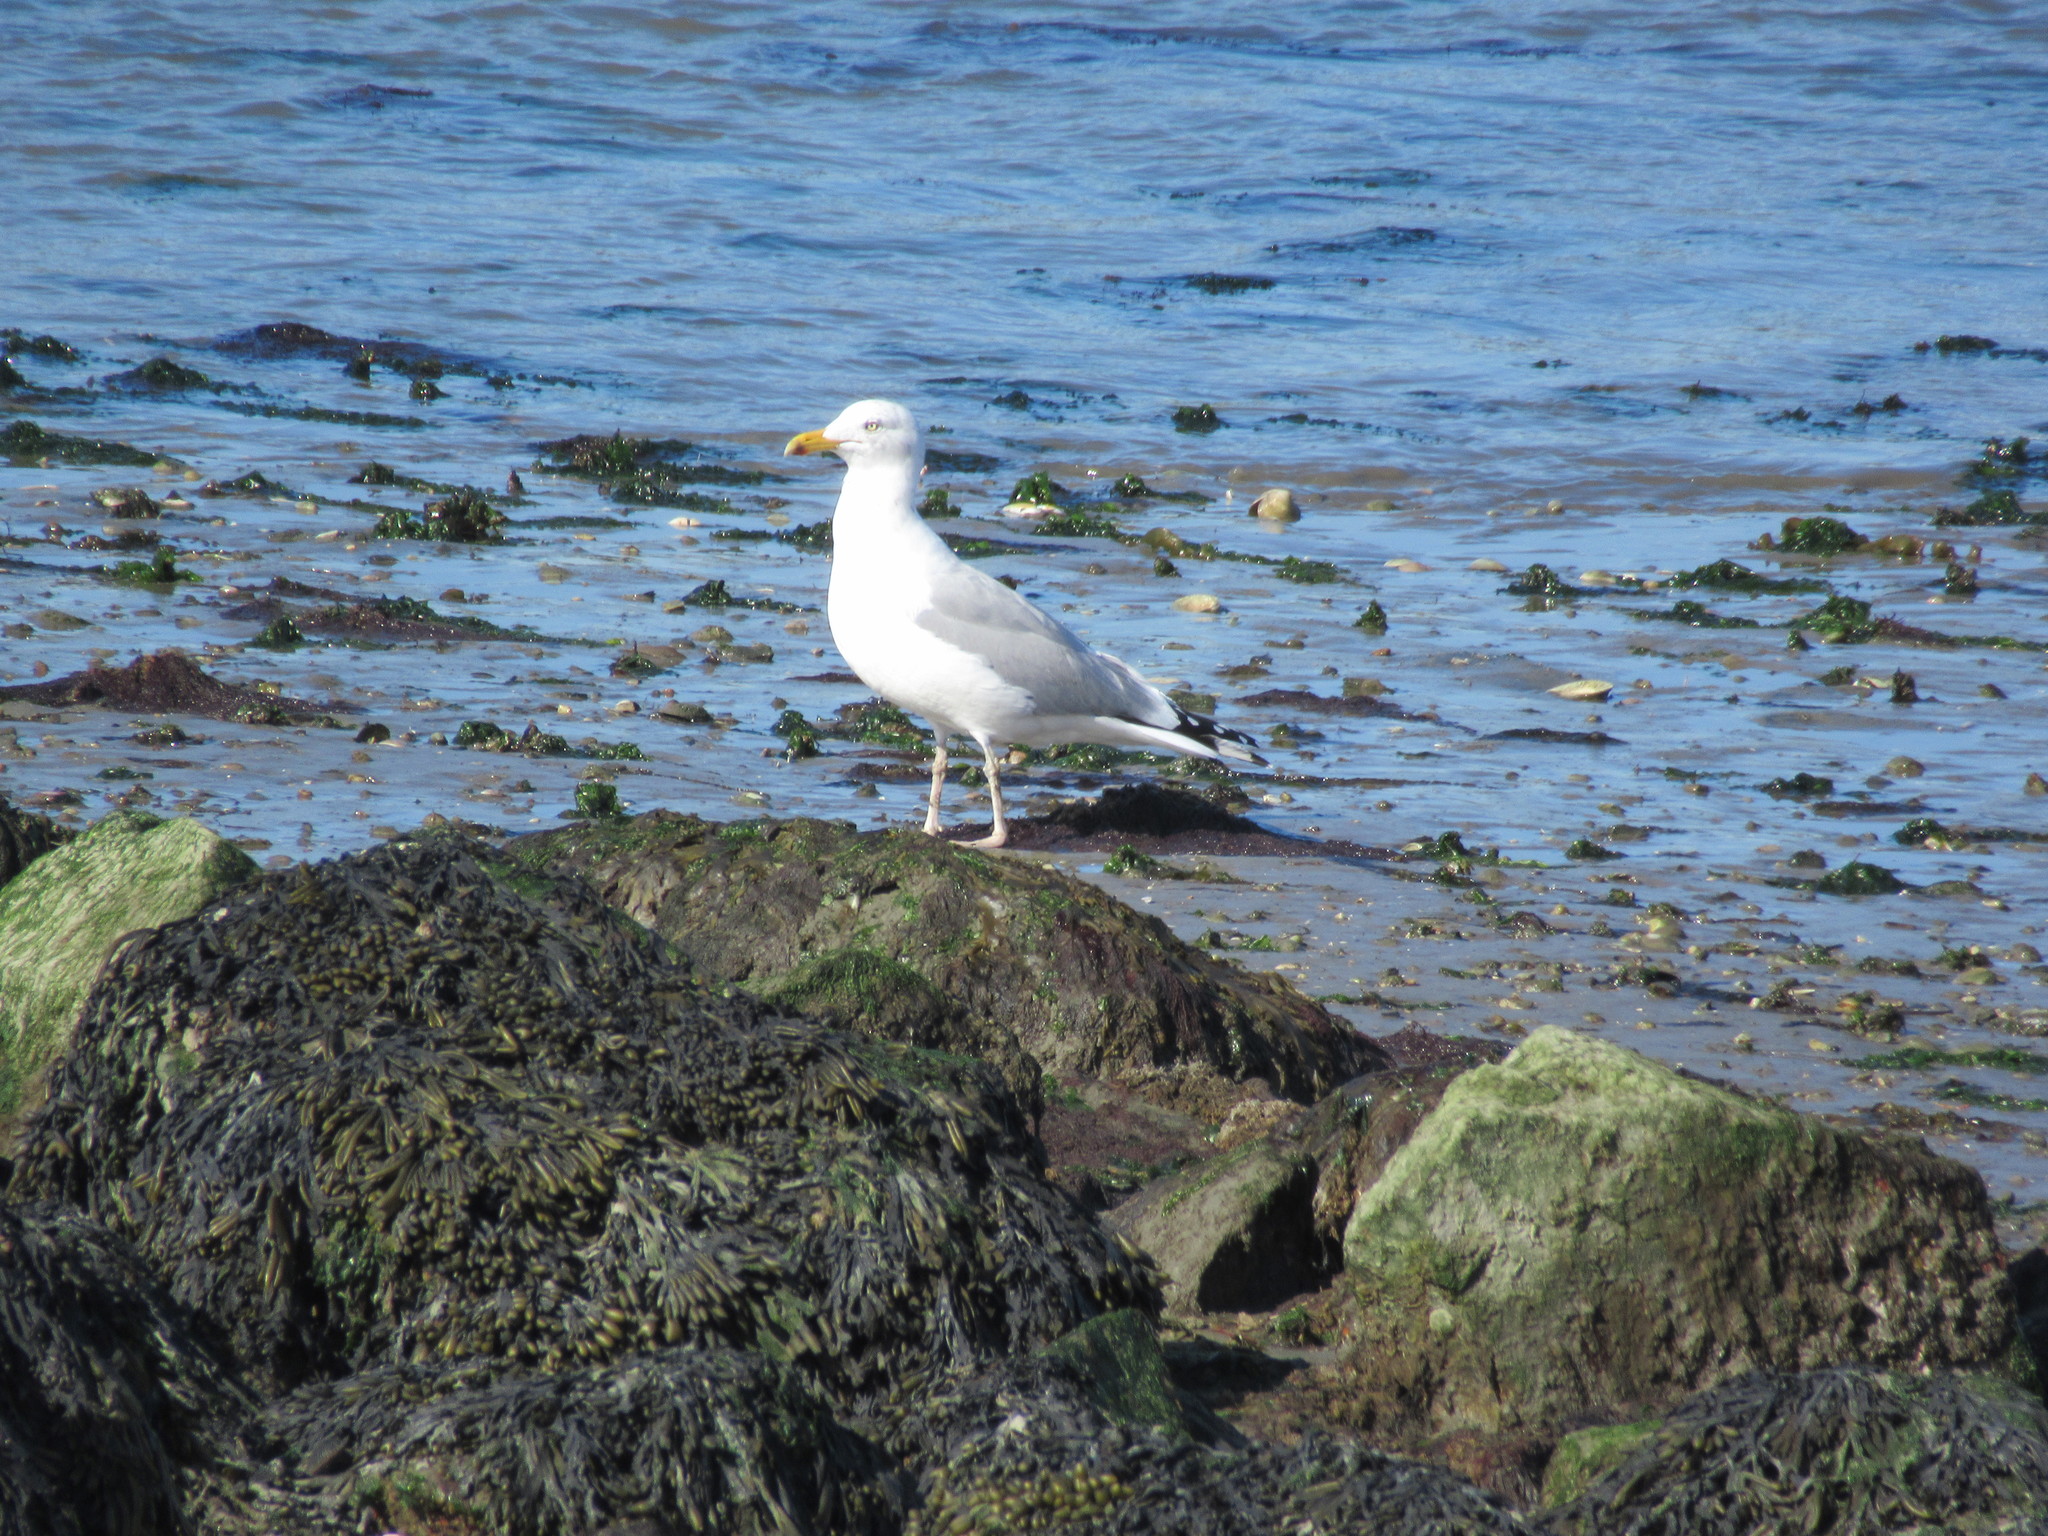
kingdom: Animalia
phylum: Chordata
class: Aves
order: Charadriiformes
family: Laridae
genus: Larus
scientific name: Larus argentatus
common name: Herring gull
